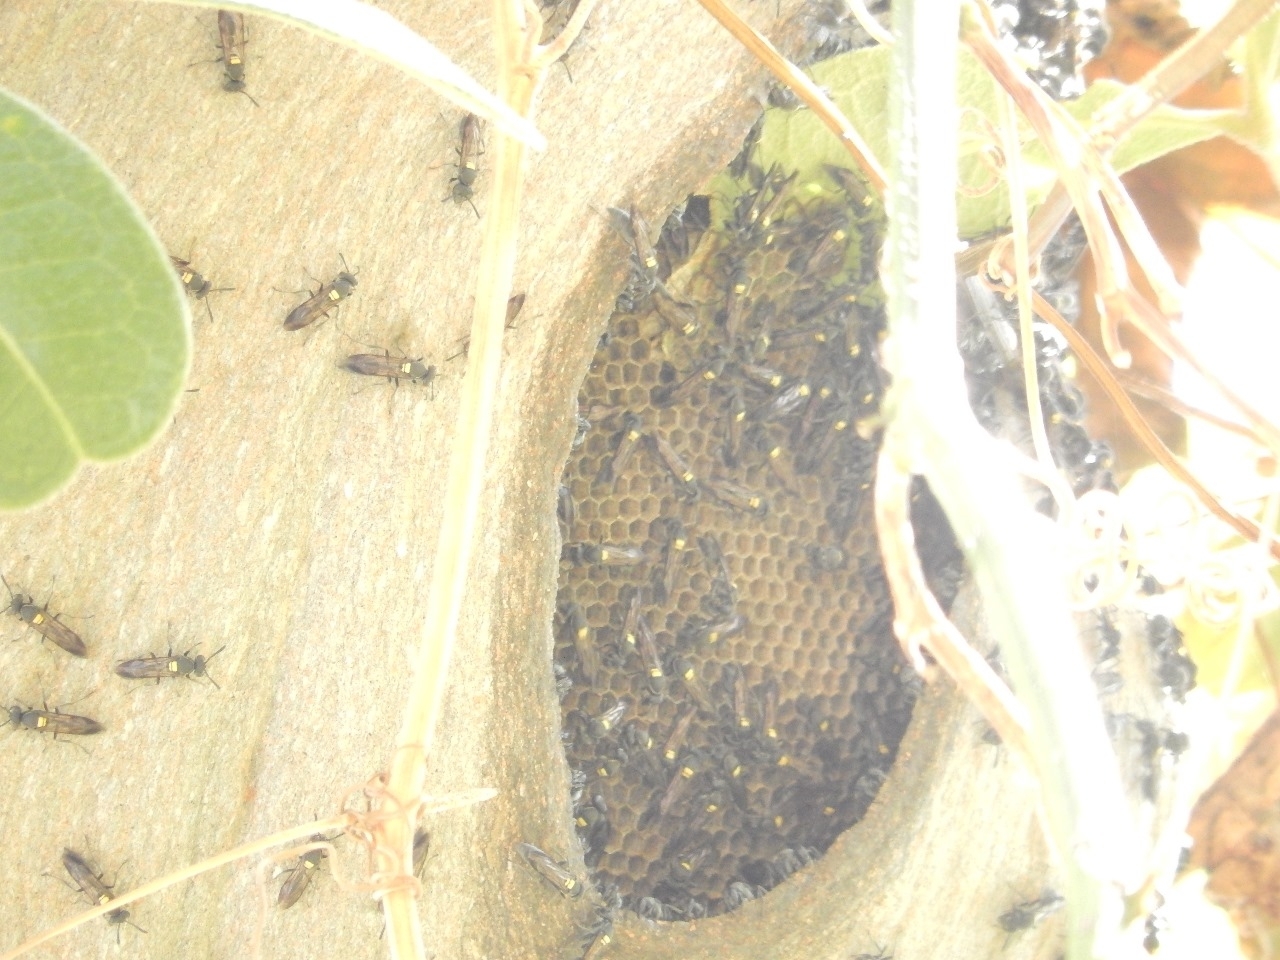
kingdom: Animalia
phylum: Arthropoda
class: Insecta
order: Hymenoptera
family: Eumenidae
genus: Polybia
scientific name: Polybia paulista
